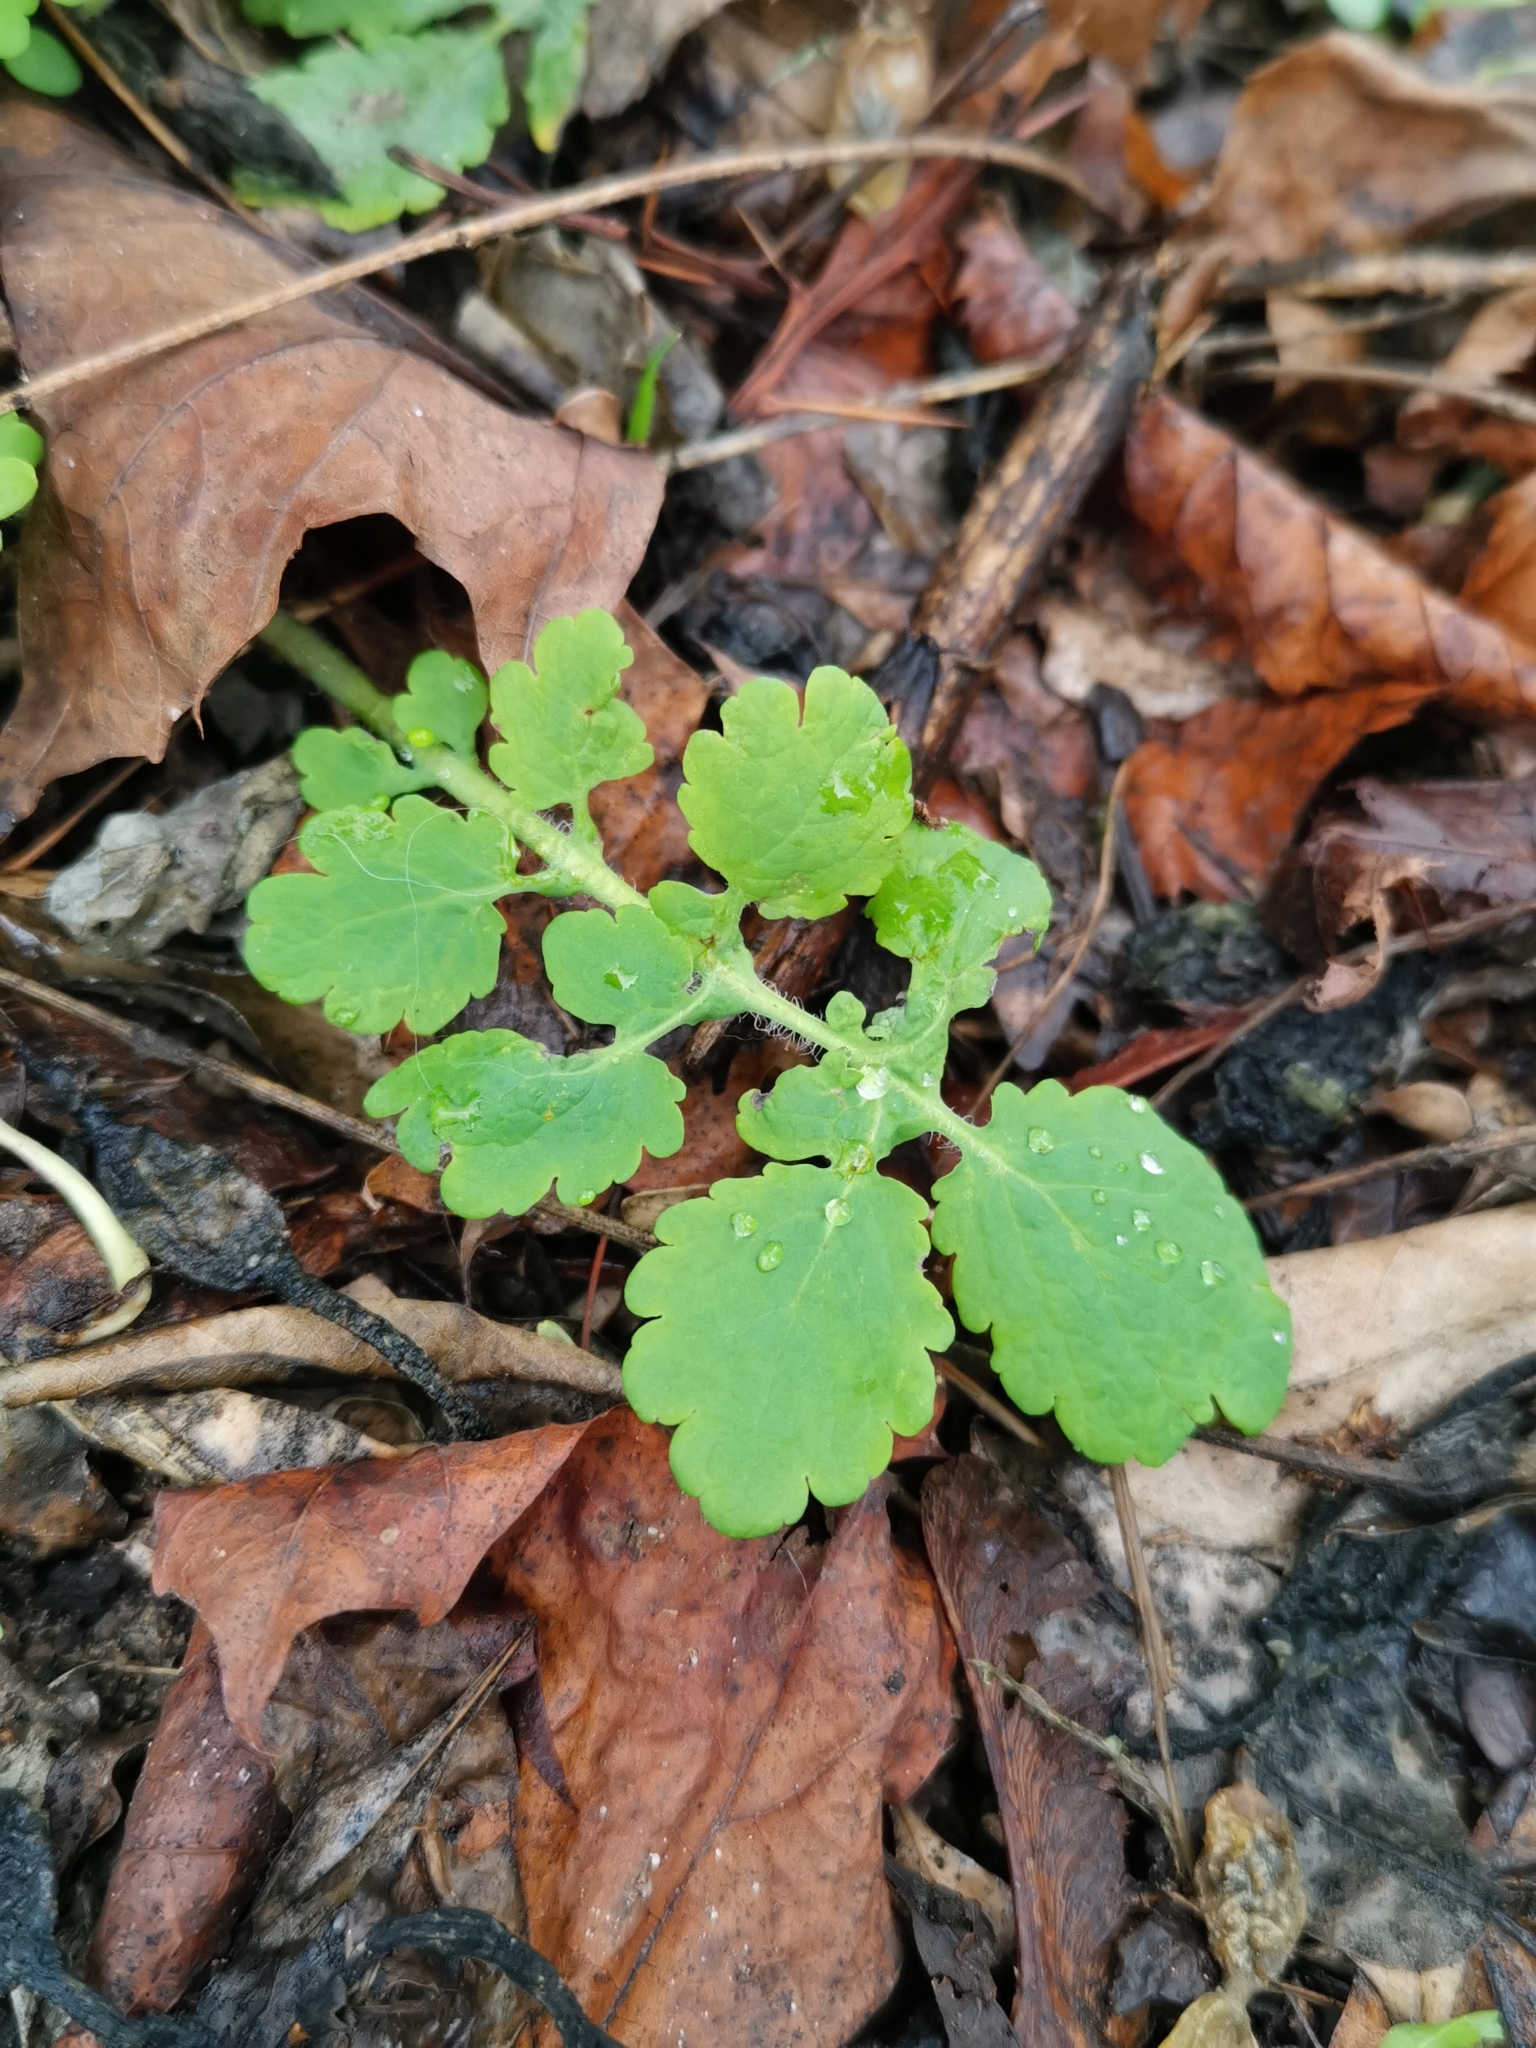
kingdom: Plantae
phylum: Tracheophyta
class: Magnoliopsida
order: Ranunculales
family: Papaveraceae
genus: Chelidonium
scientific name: Chelidonium majus
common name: Greater celandine
